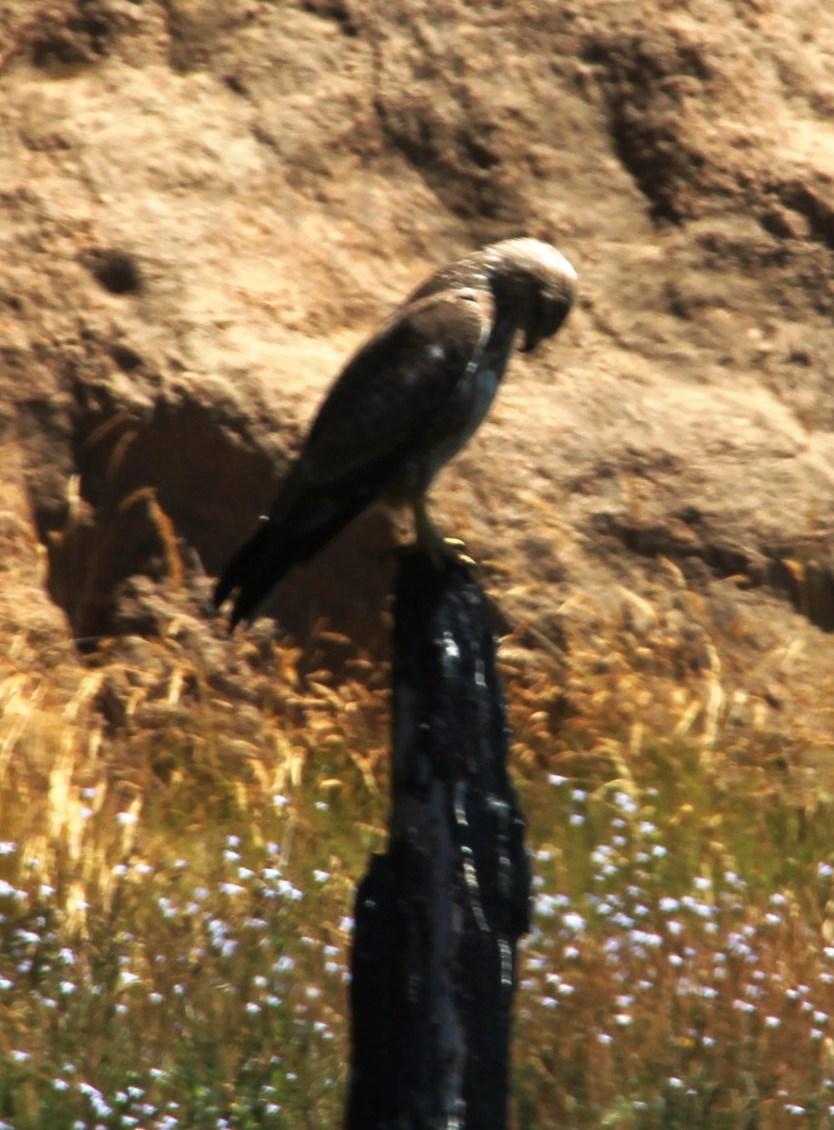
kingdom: Animalia
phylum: Chordata
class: Aves
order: Accipitriformes
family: Accipitridae
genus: Buteo
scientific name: Buteo buteo
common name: Common buzzard
